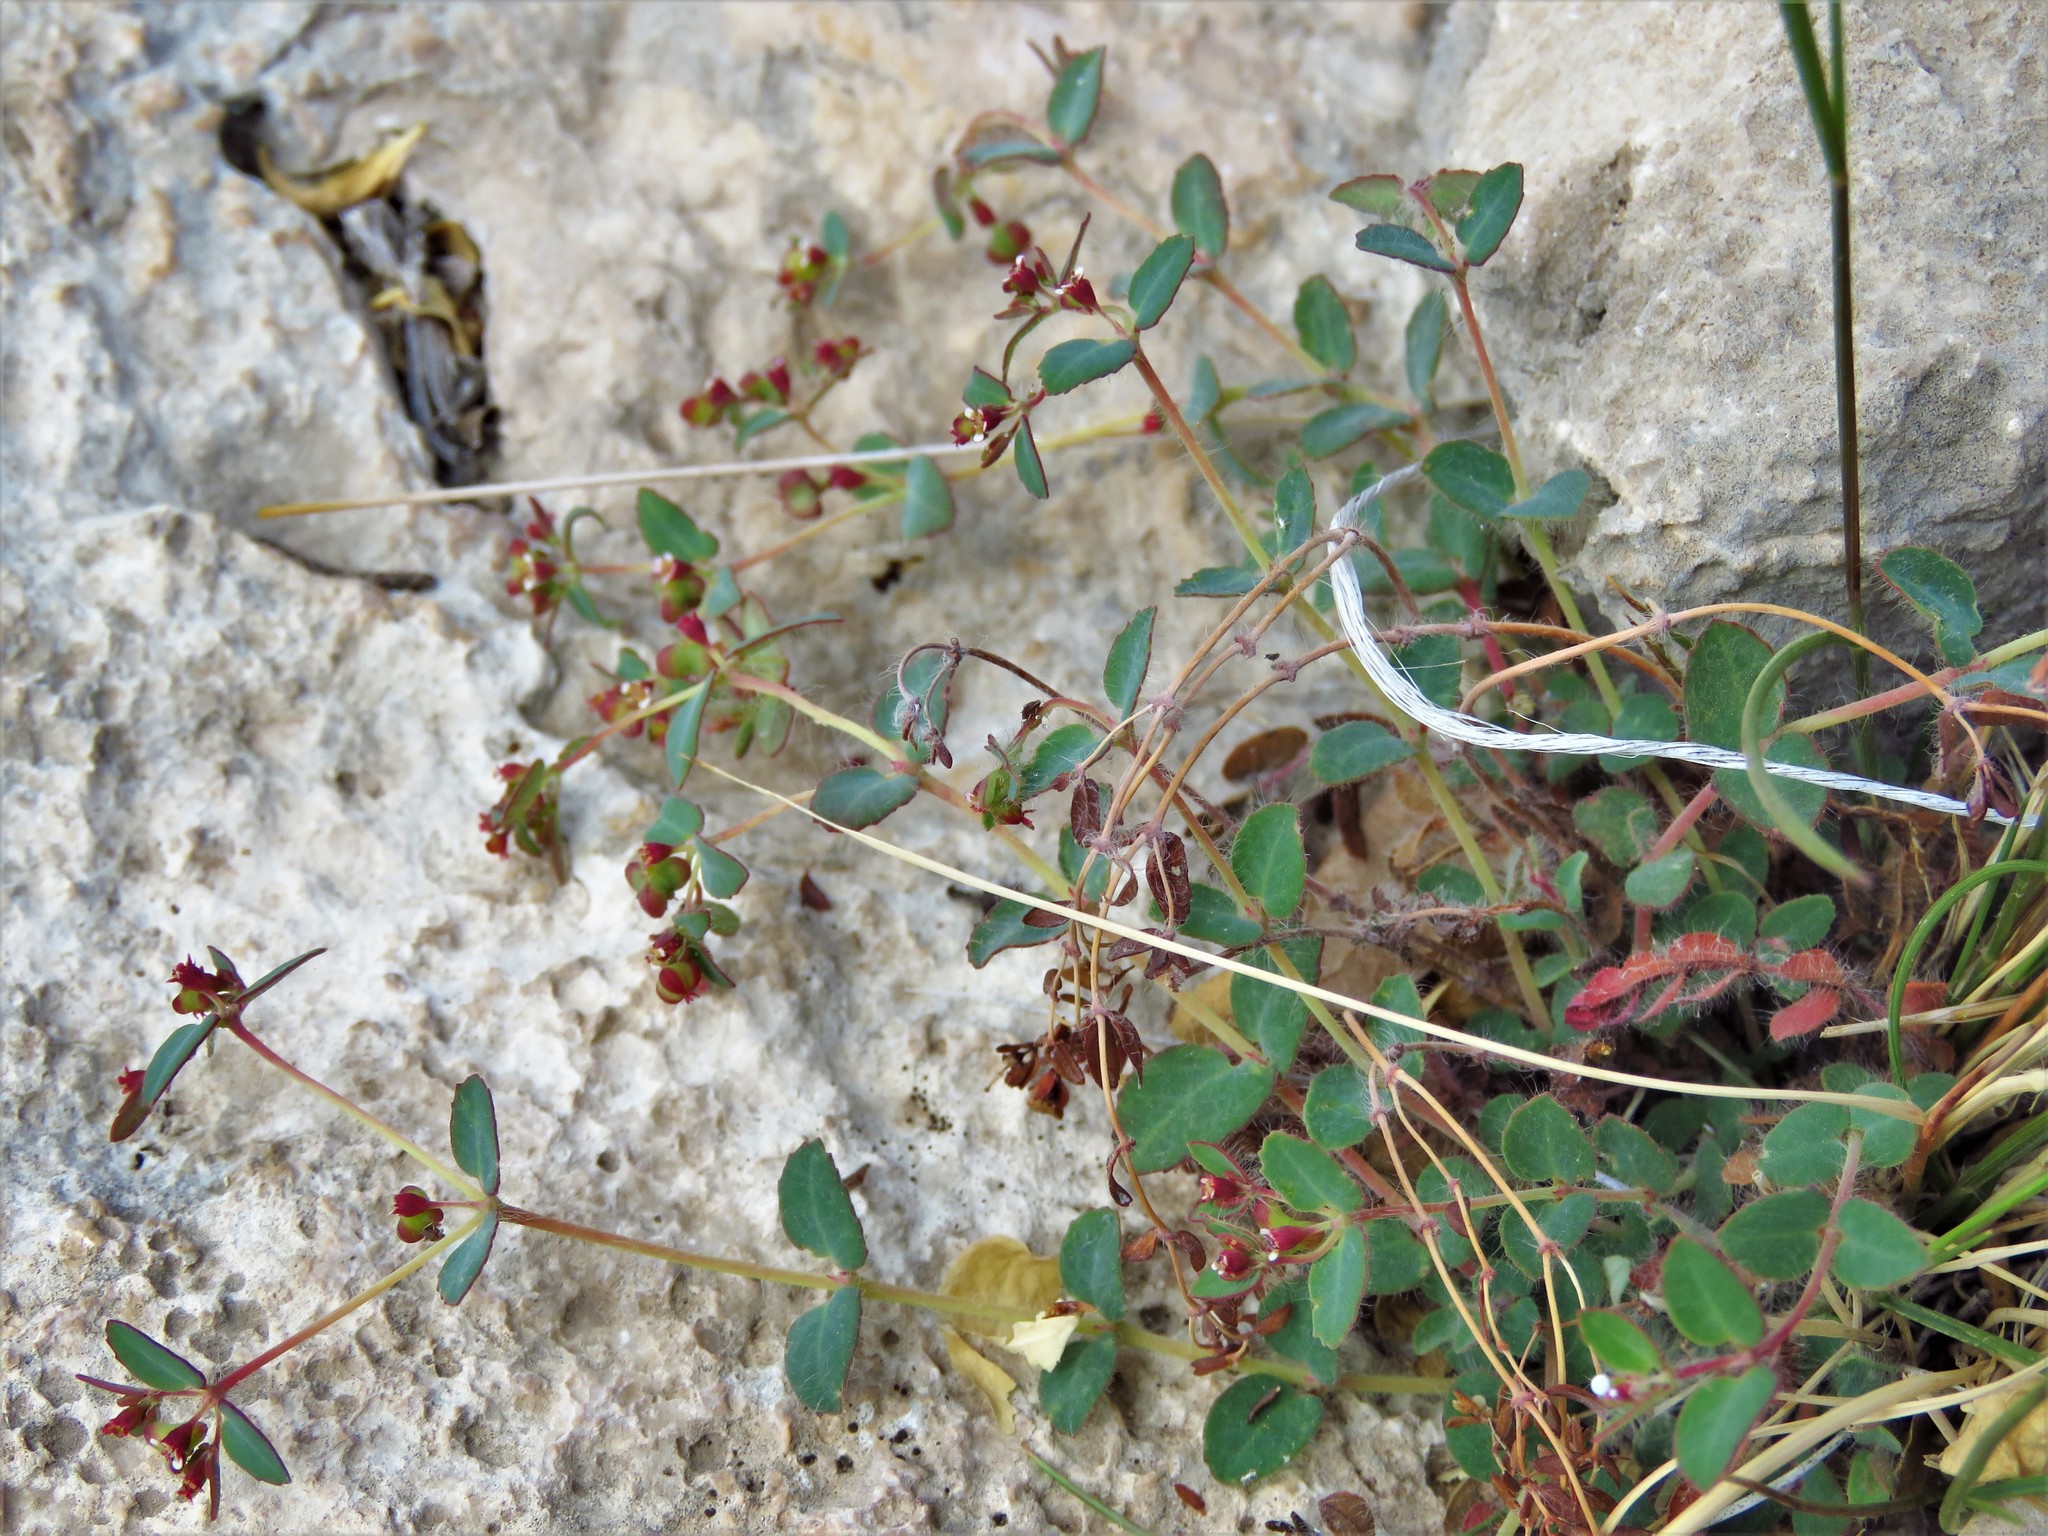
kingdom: Plantae
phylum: Tracheophyta
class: Magnoliopsida
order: Malpighiales
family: Euphorbiaceae
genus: Euphorbia
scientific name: Euphorbia villifera
